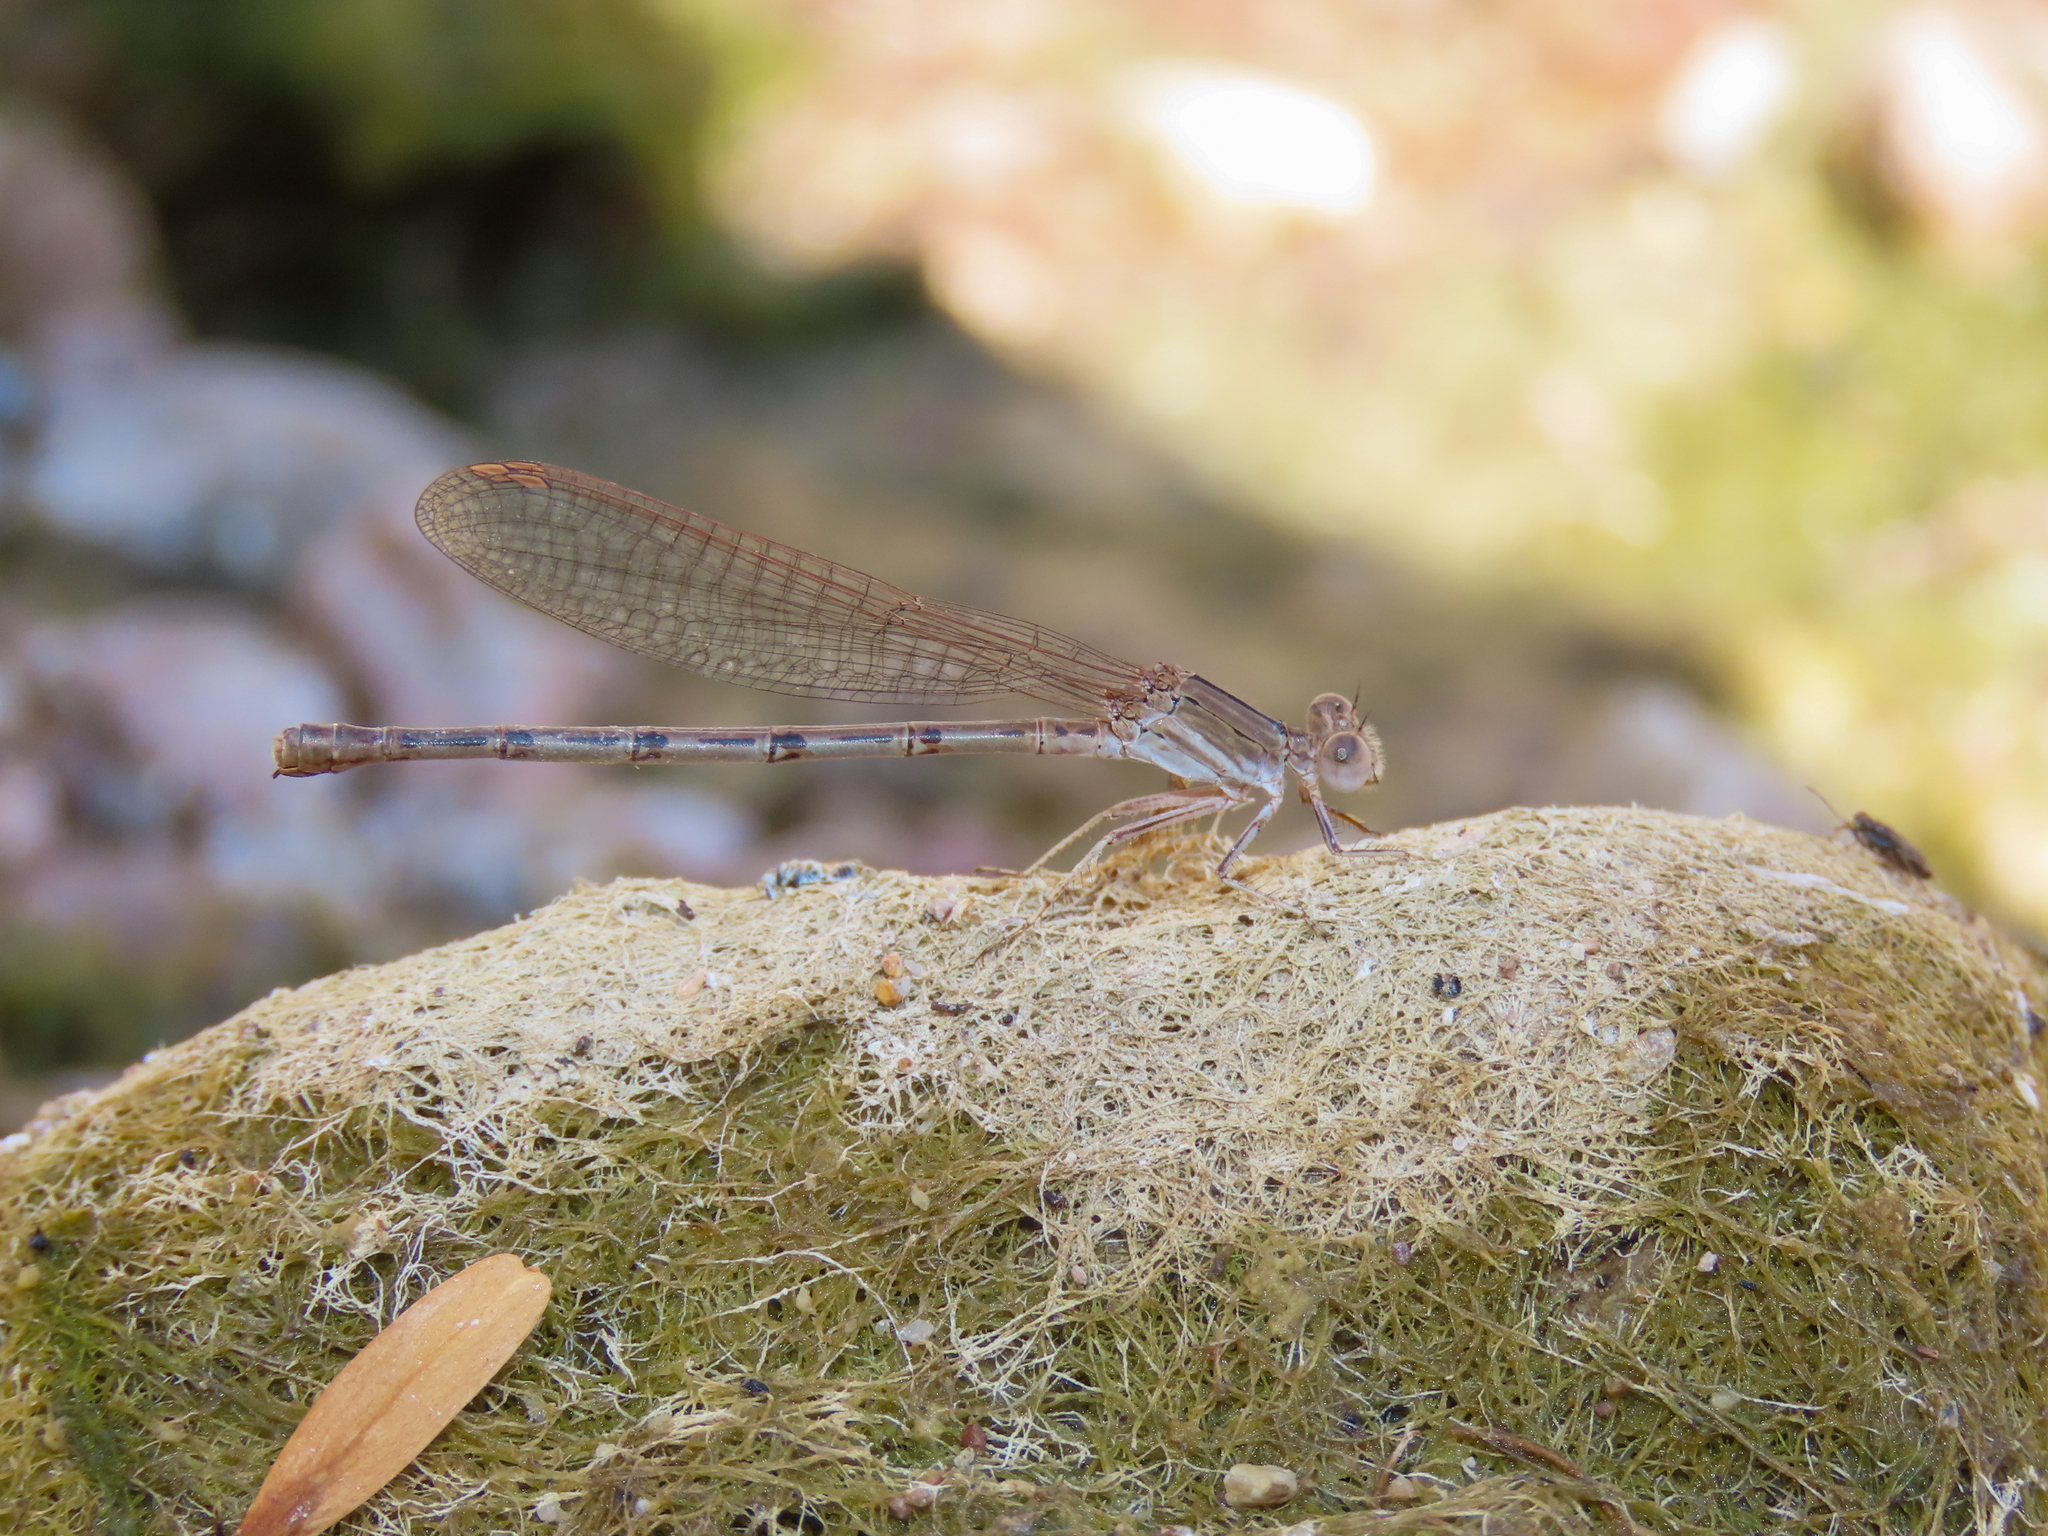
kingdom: Animalia
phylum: Arthropoda
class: Insecta
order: Odonata
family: Coenagrionidae
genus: Argia
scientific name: Argia pallens
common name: Amethyst dancer
